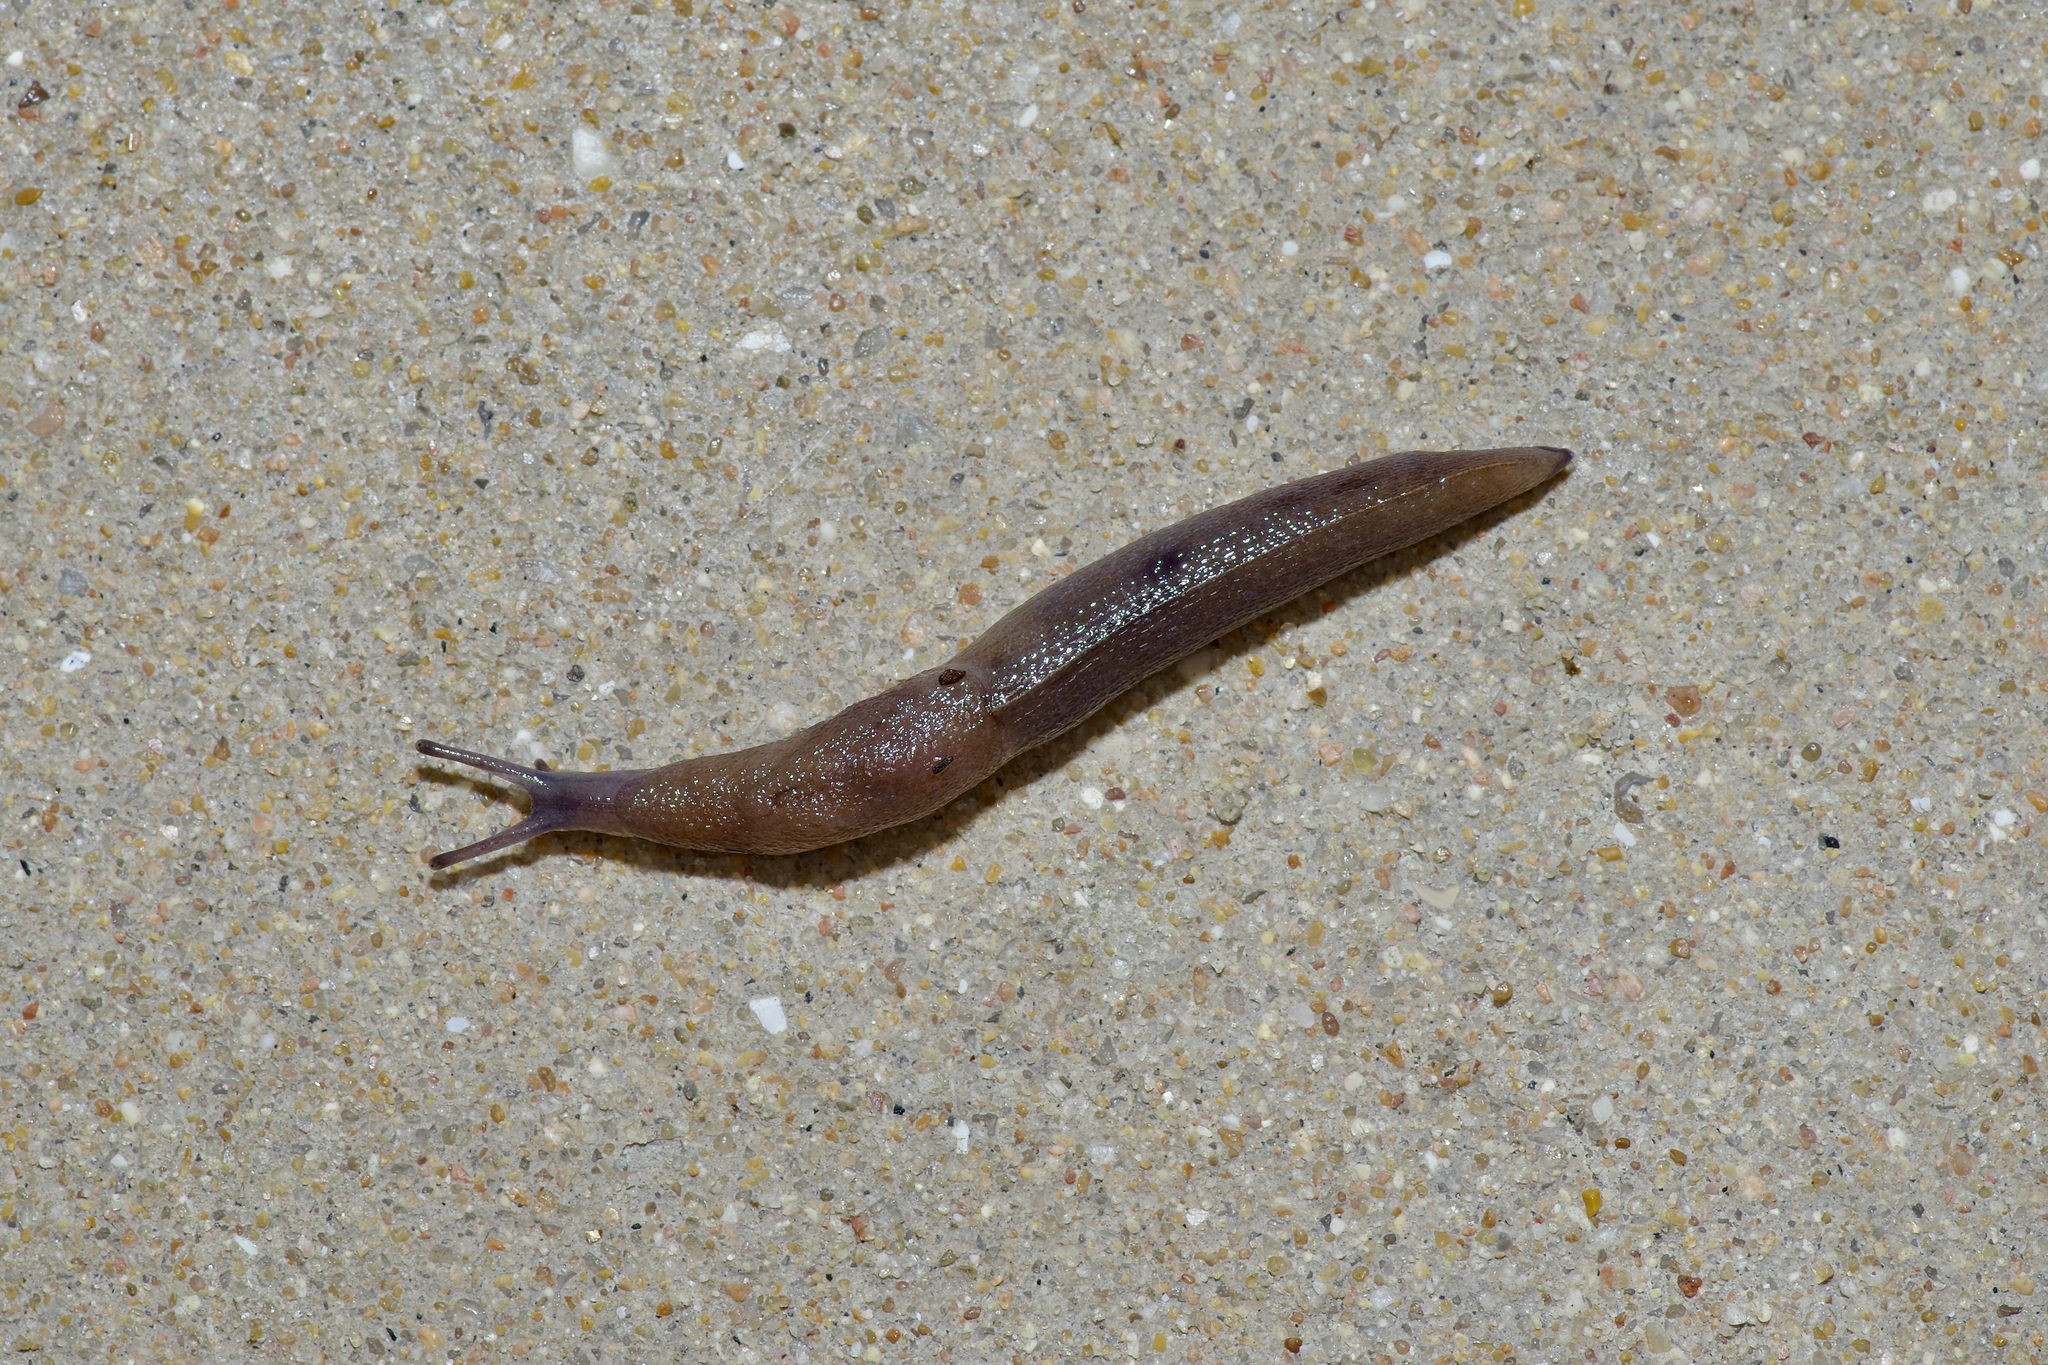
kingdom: Animalia
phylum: Mollusca
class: Gastropoda
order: Stylommatophora
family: Milacidae
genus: Milax
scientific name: Milax gagates
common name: Greenhouse slug
